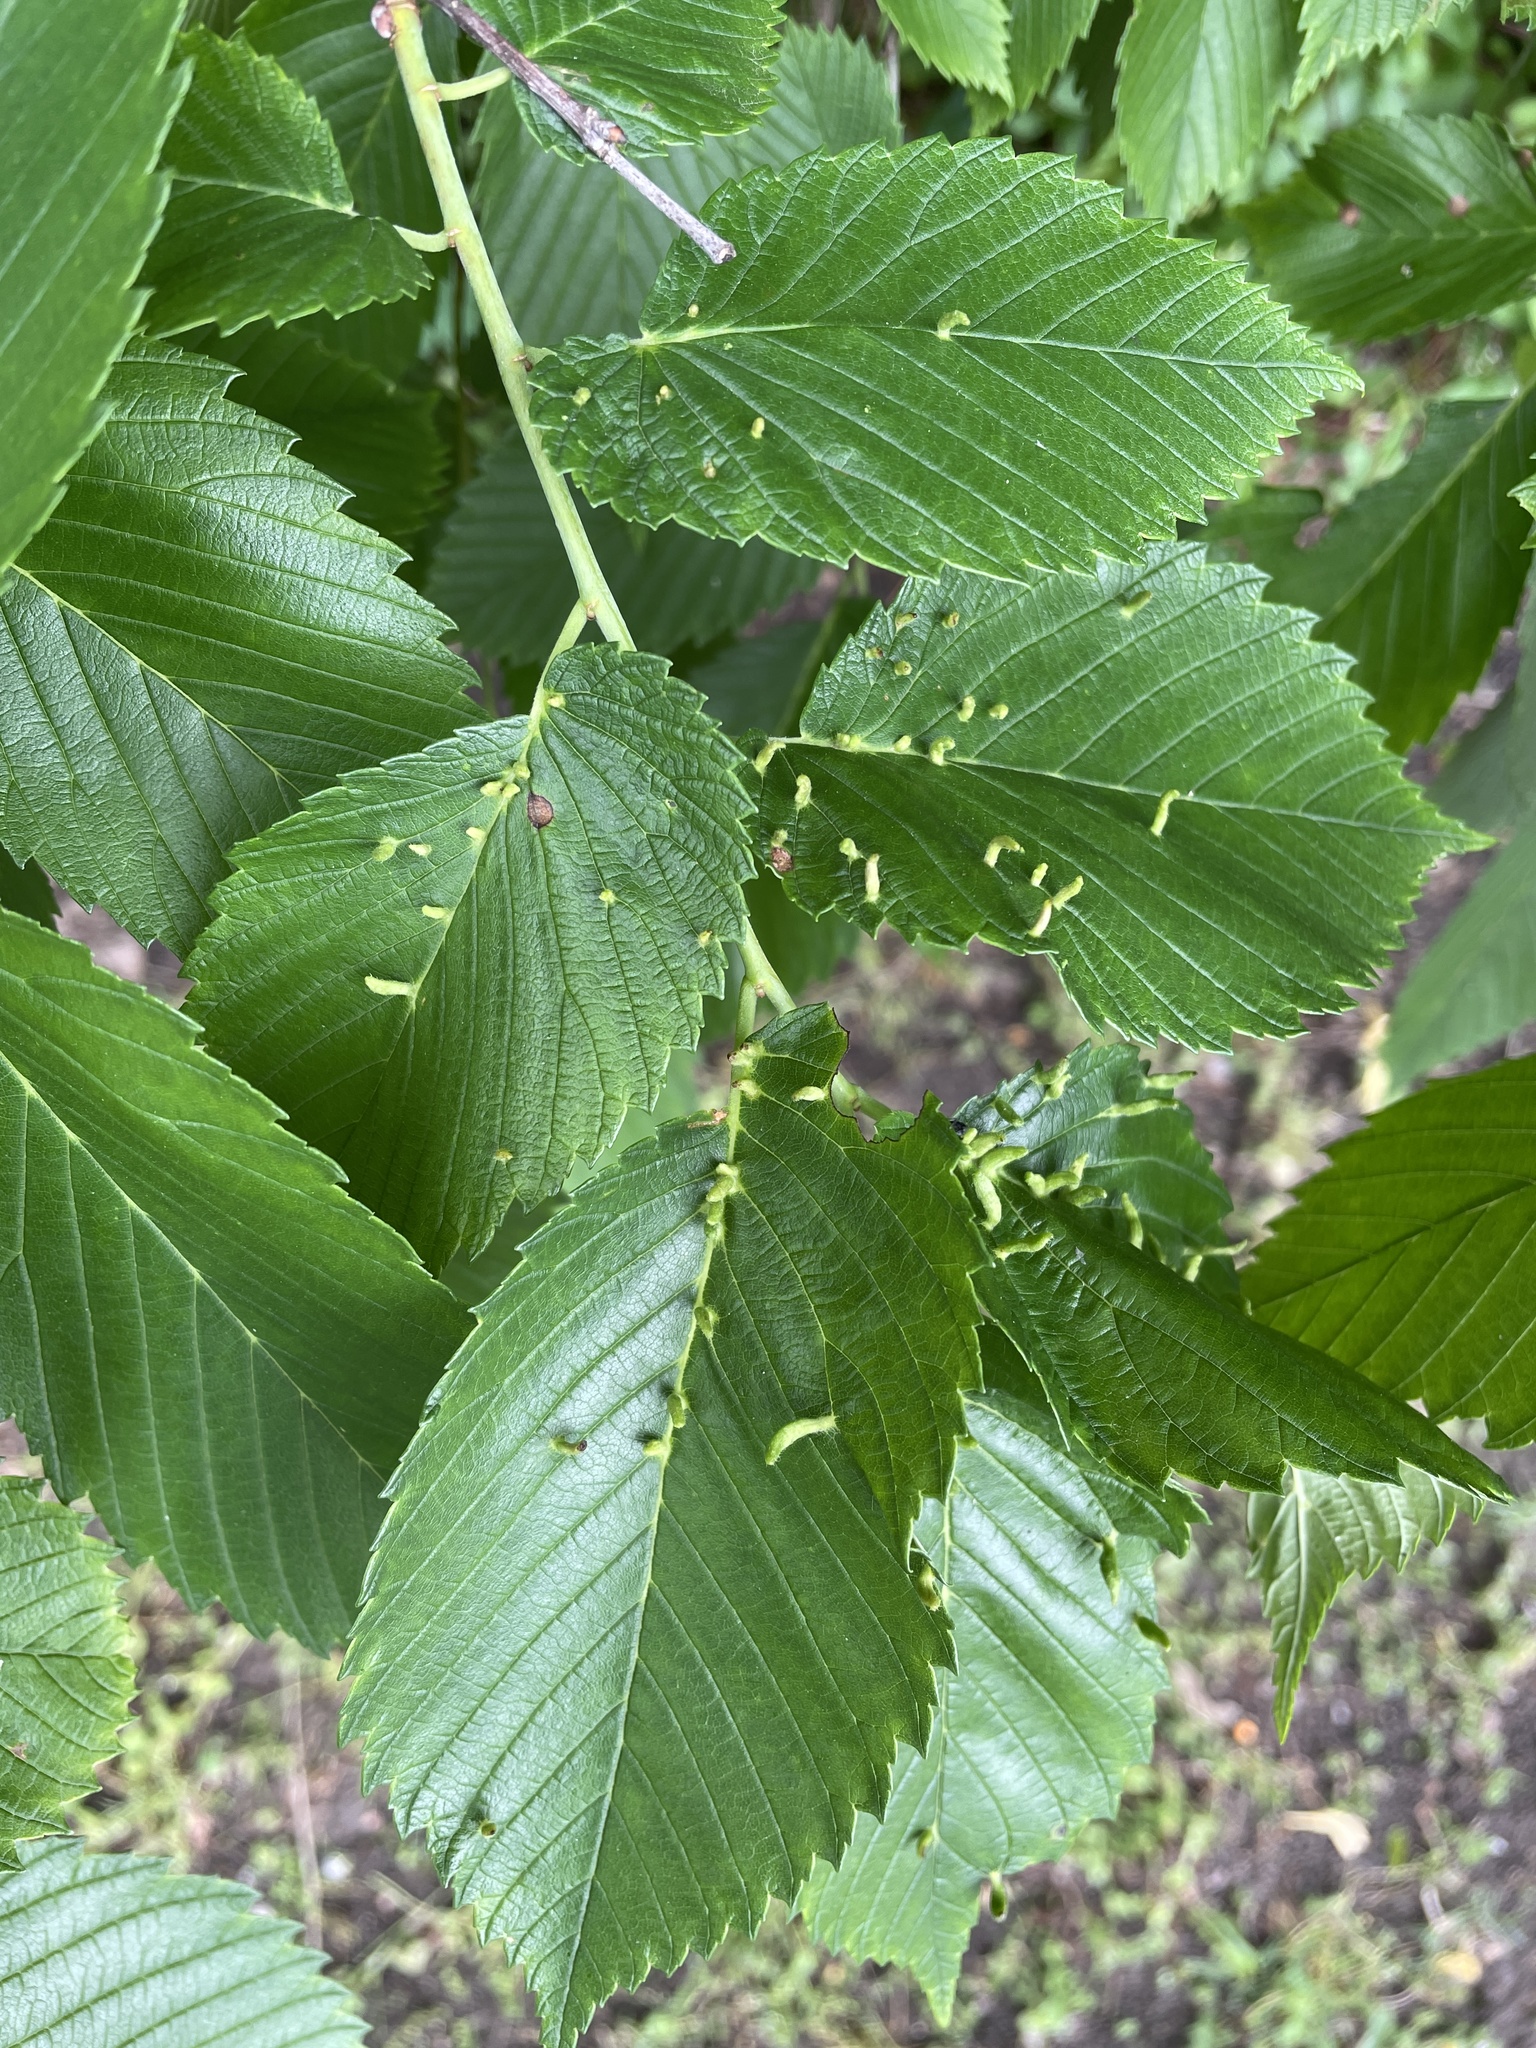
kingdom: Plantae
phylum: Tracheophyta
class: Magnoliopsida
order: Rosales
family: Ulmaceae
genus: Ulmus
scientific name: Ulmus americana
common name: American elm
